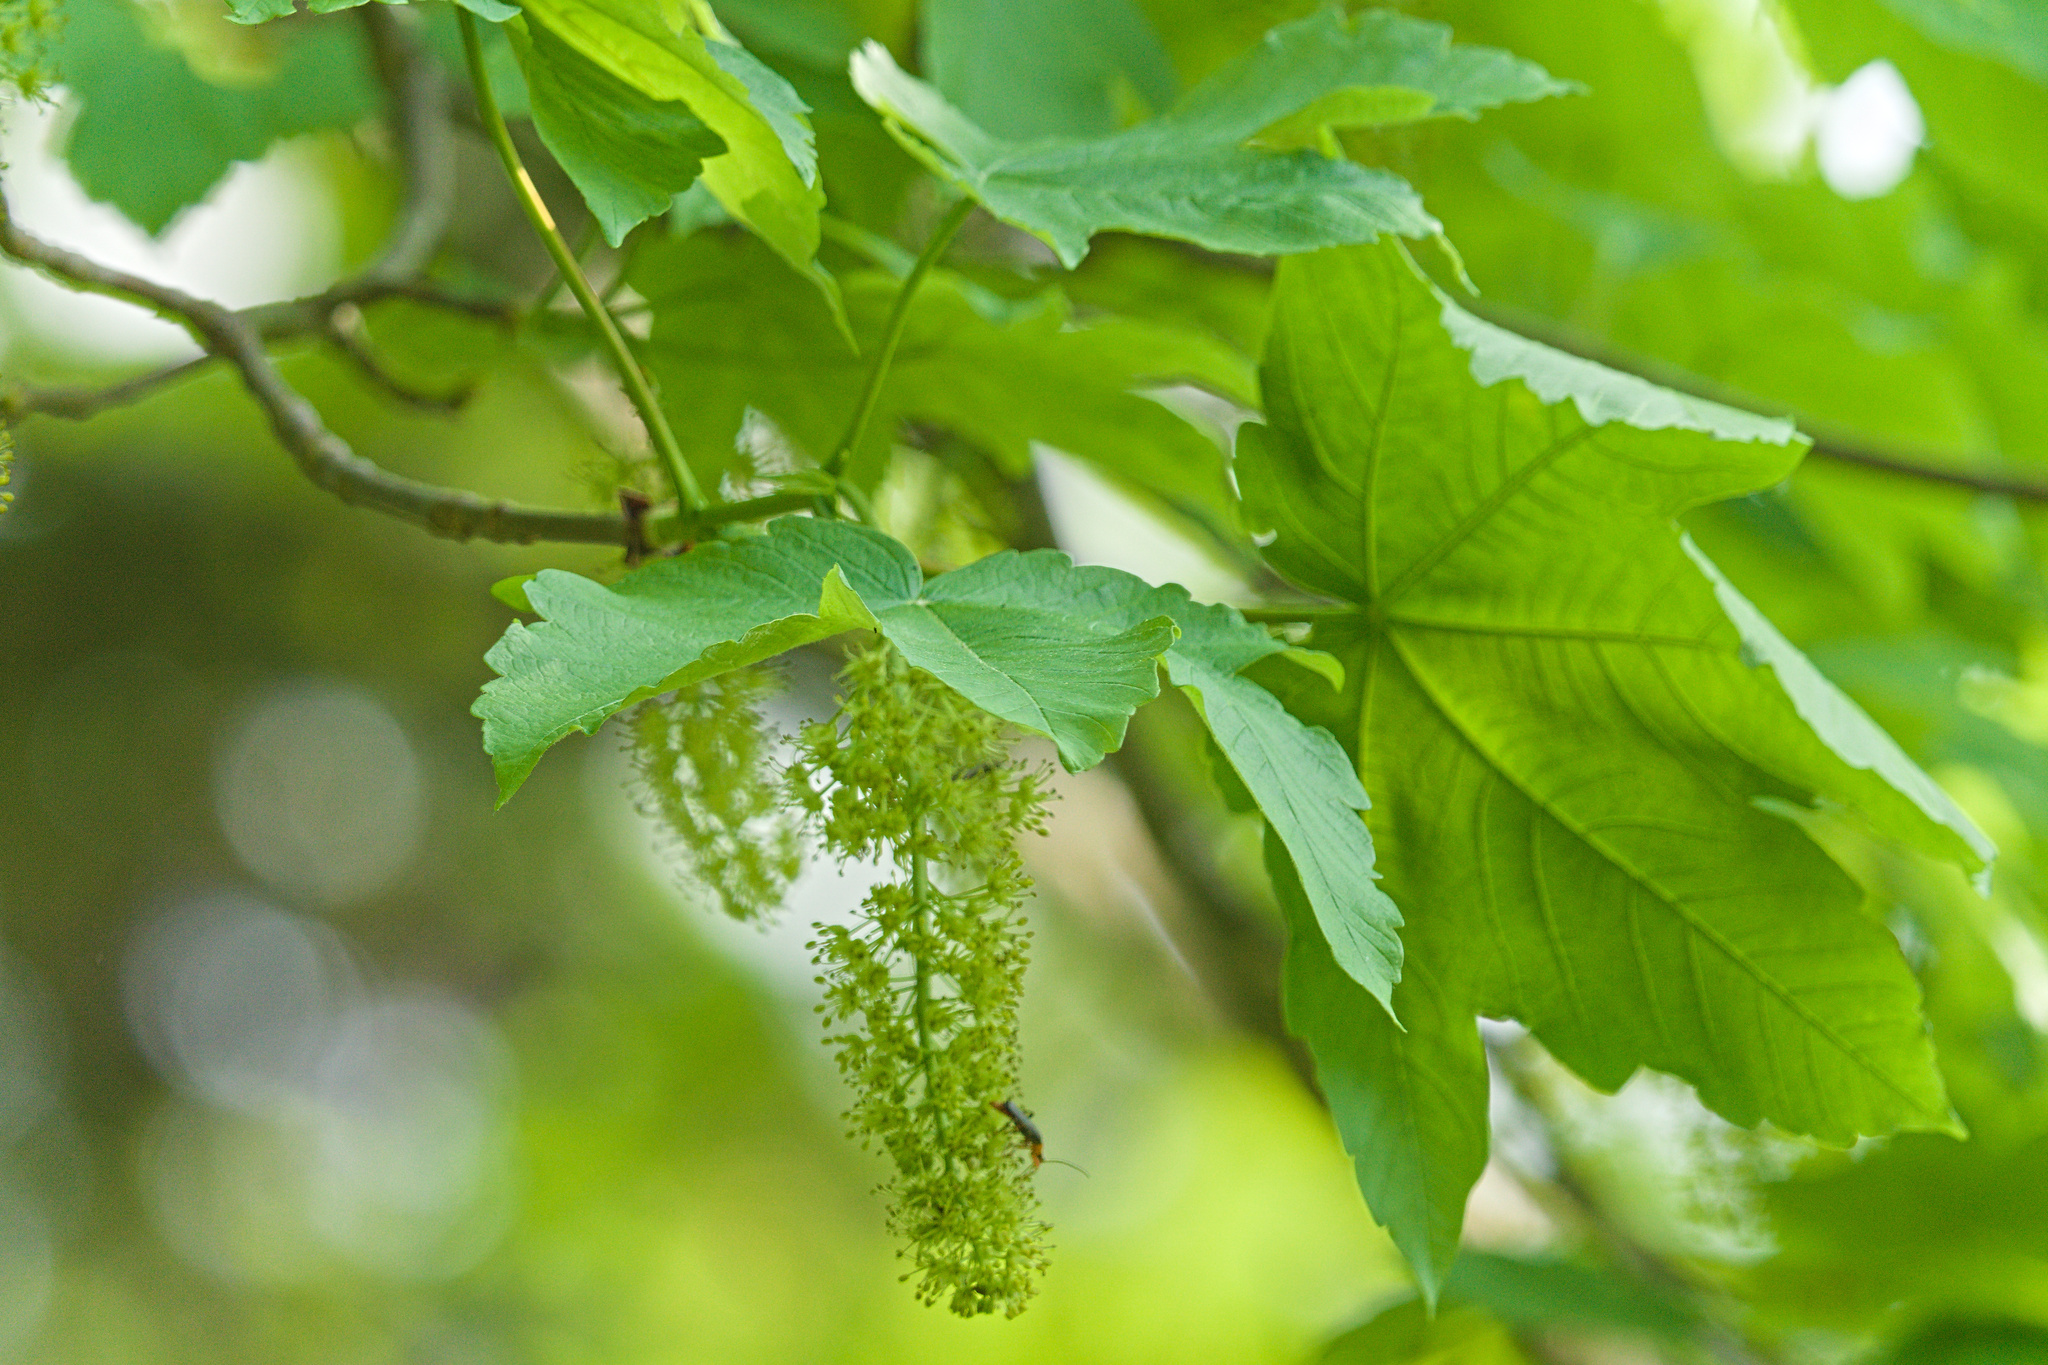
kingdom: Plantae
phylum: Tracheophyta
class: Magnoliopsida
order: Sapindales
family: Sapindaceae
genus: Acer
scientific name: Acer pseudoplatanus
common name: Sycamore
